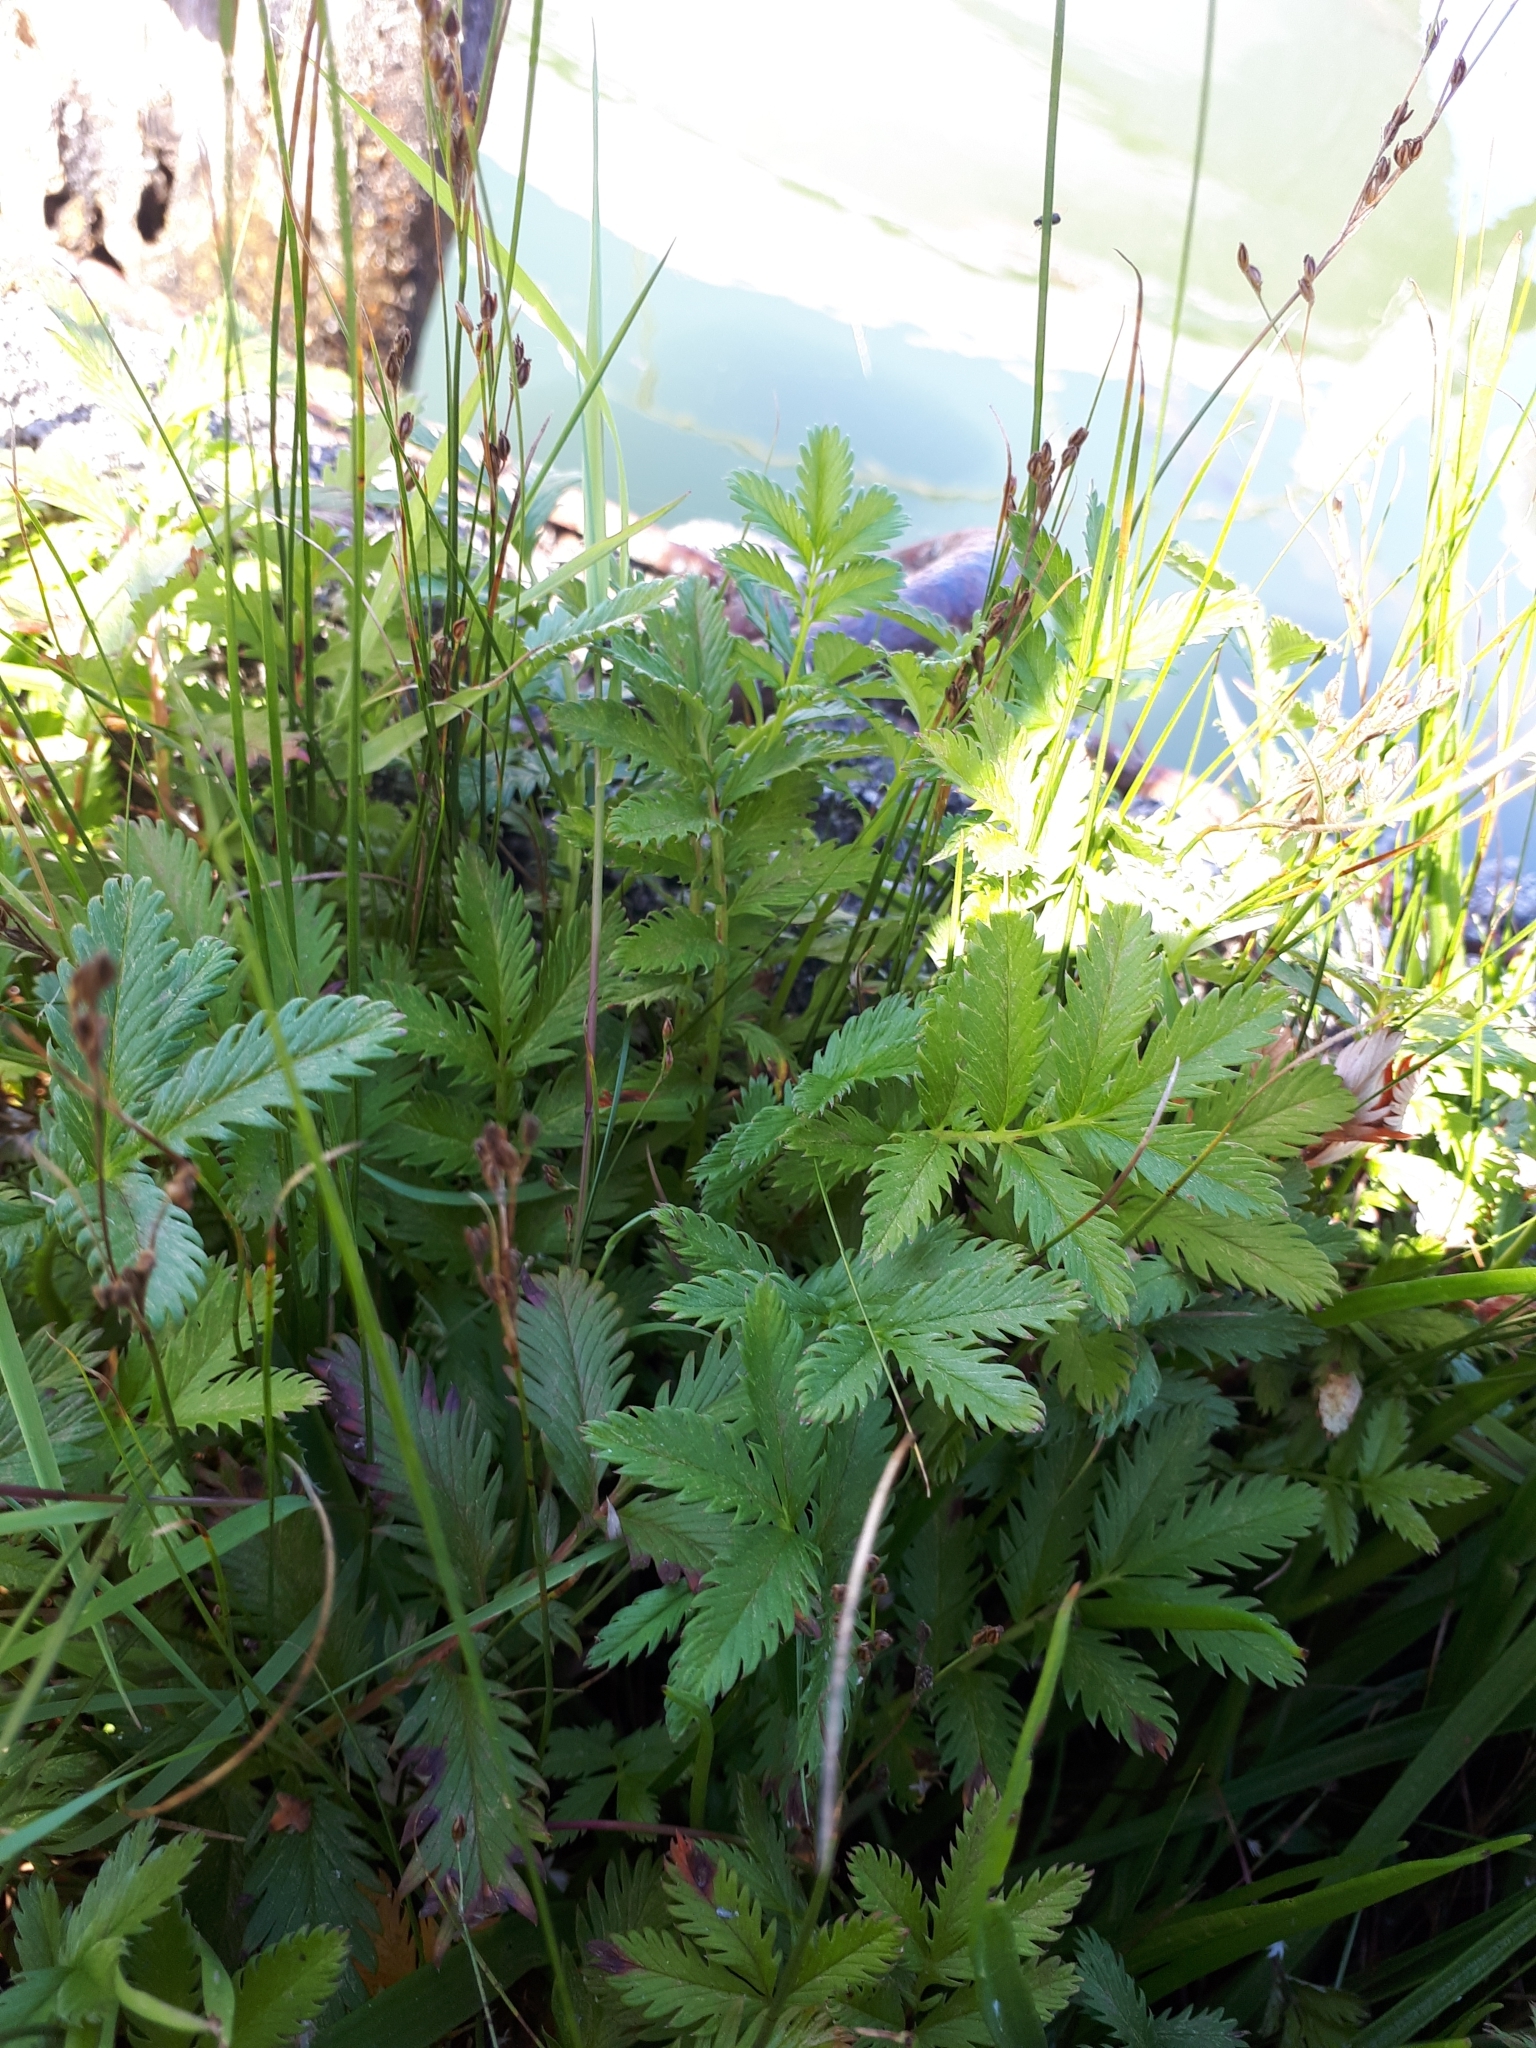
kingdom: Plantae
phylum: Tracheophyta
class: Magnoliopsida
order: Rosales
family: Rosaceae
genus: Argentina
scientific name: Argentina anserina
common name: Common silverweed
